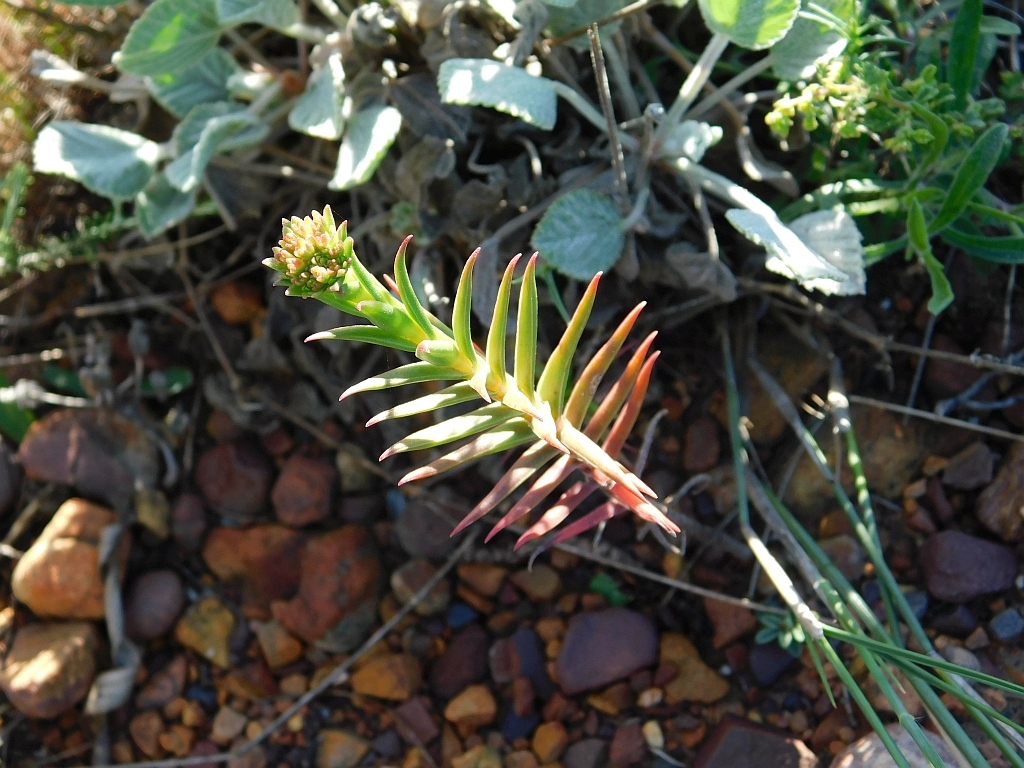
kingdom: Plantae
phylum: Tracheophyta
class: Magnoliopsida
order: Saxifragales
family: Crassulaceae
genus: Crassula
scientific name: Crassula subulata
